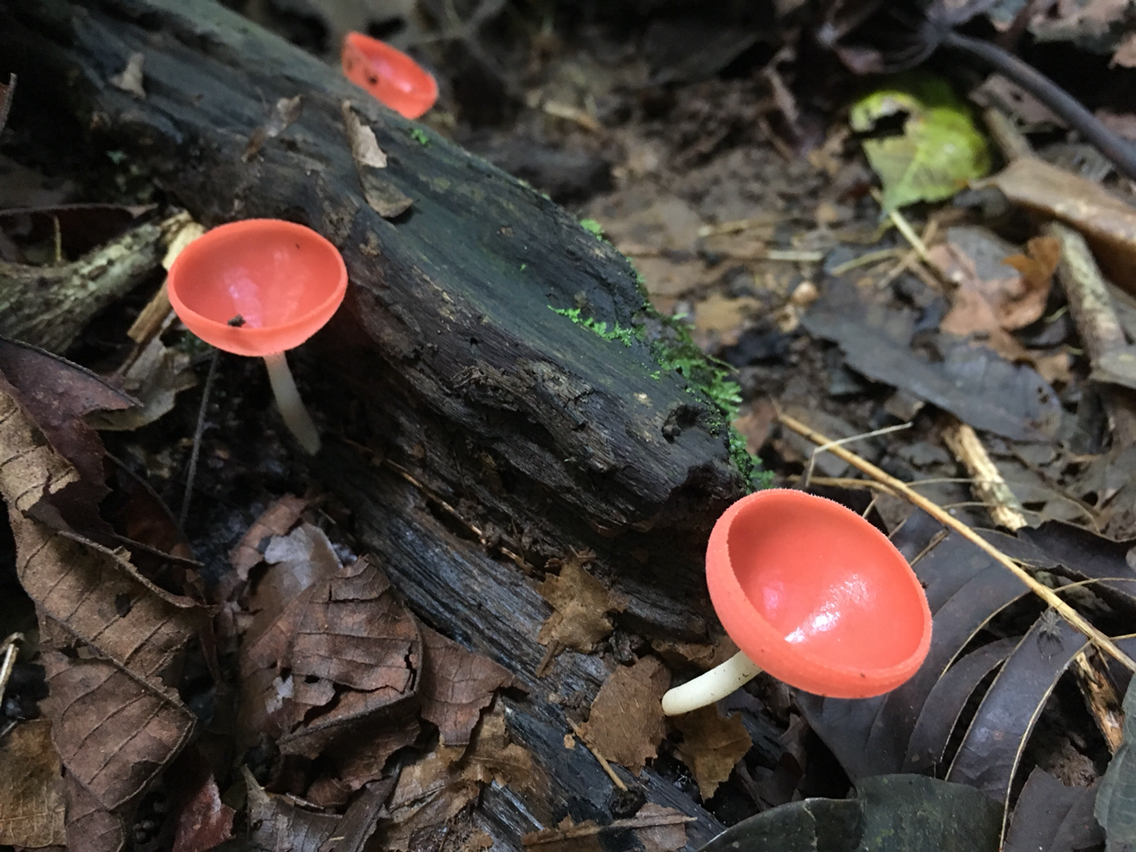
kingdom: Fungi
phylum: Ascomycota
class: Pezizomycetes
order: Pezizales
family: Sarcoscyphaceae
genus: Cookeina
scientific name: Cookeina speciosa
